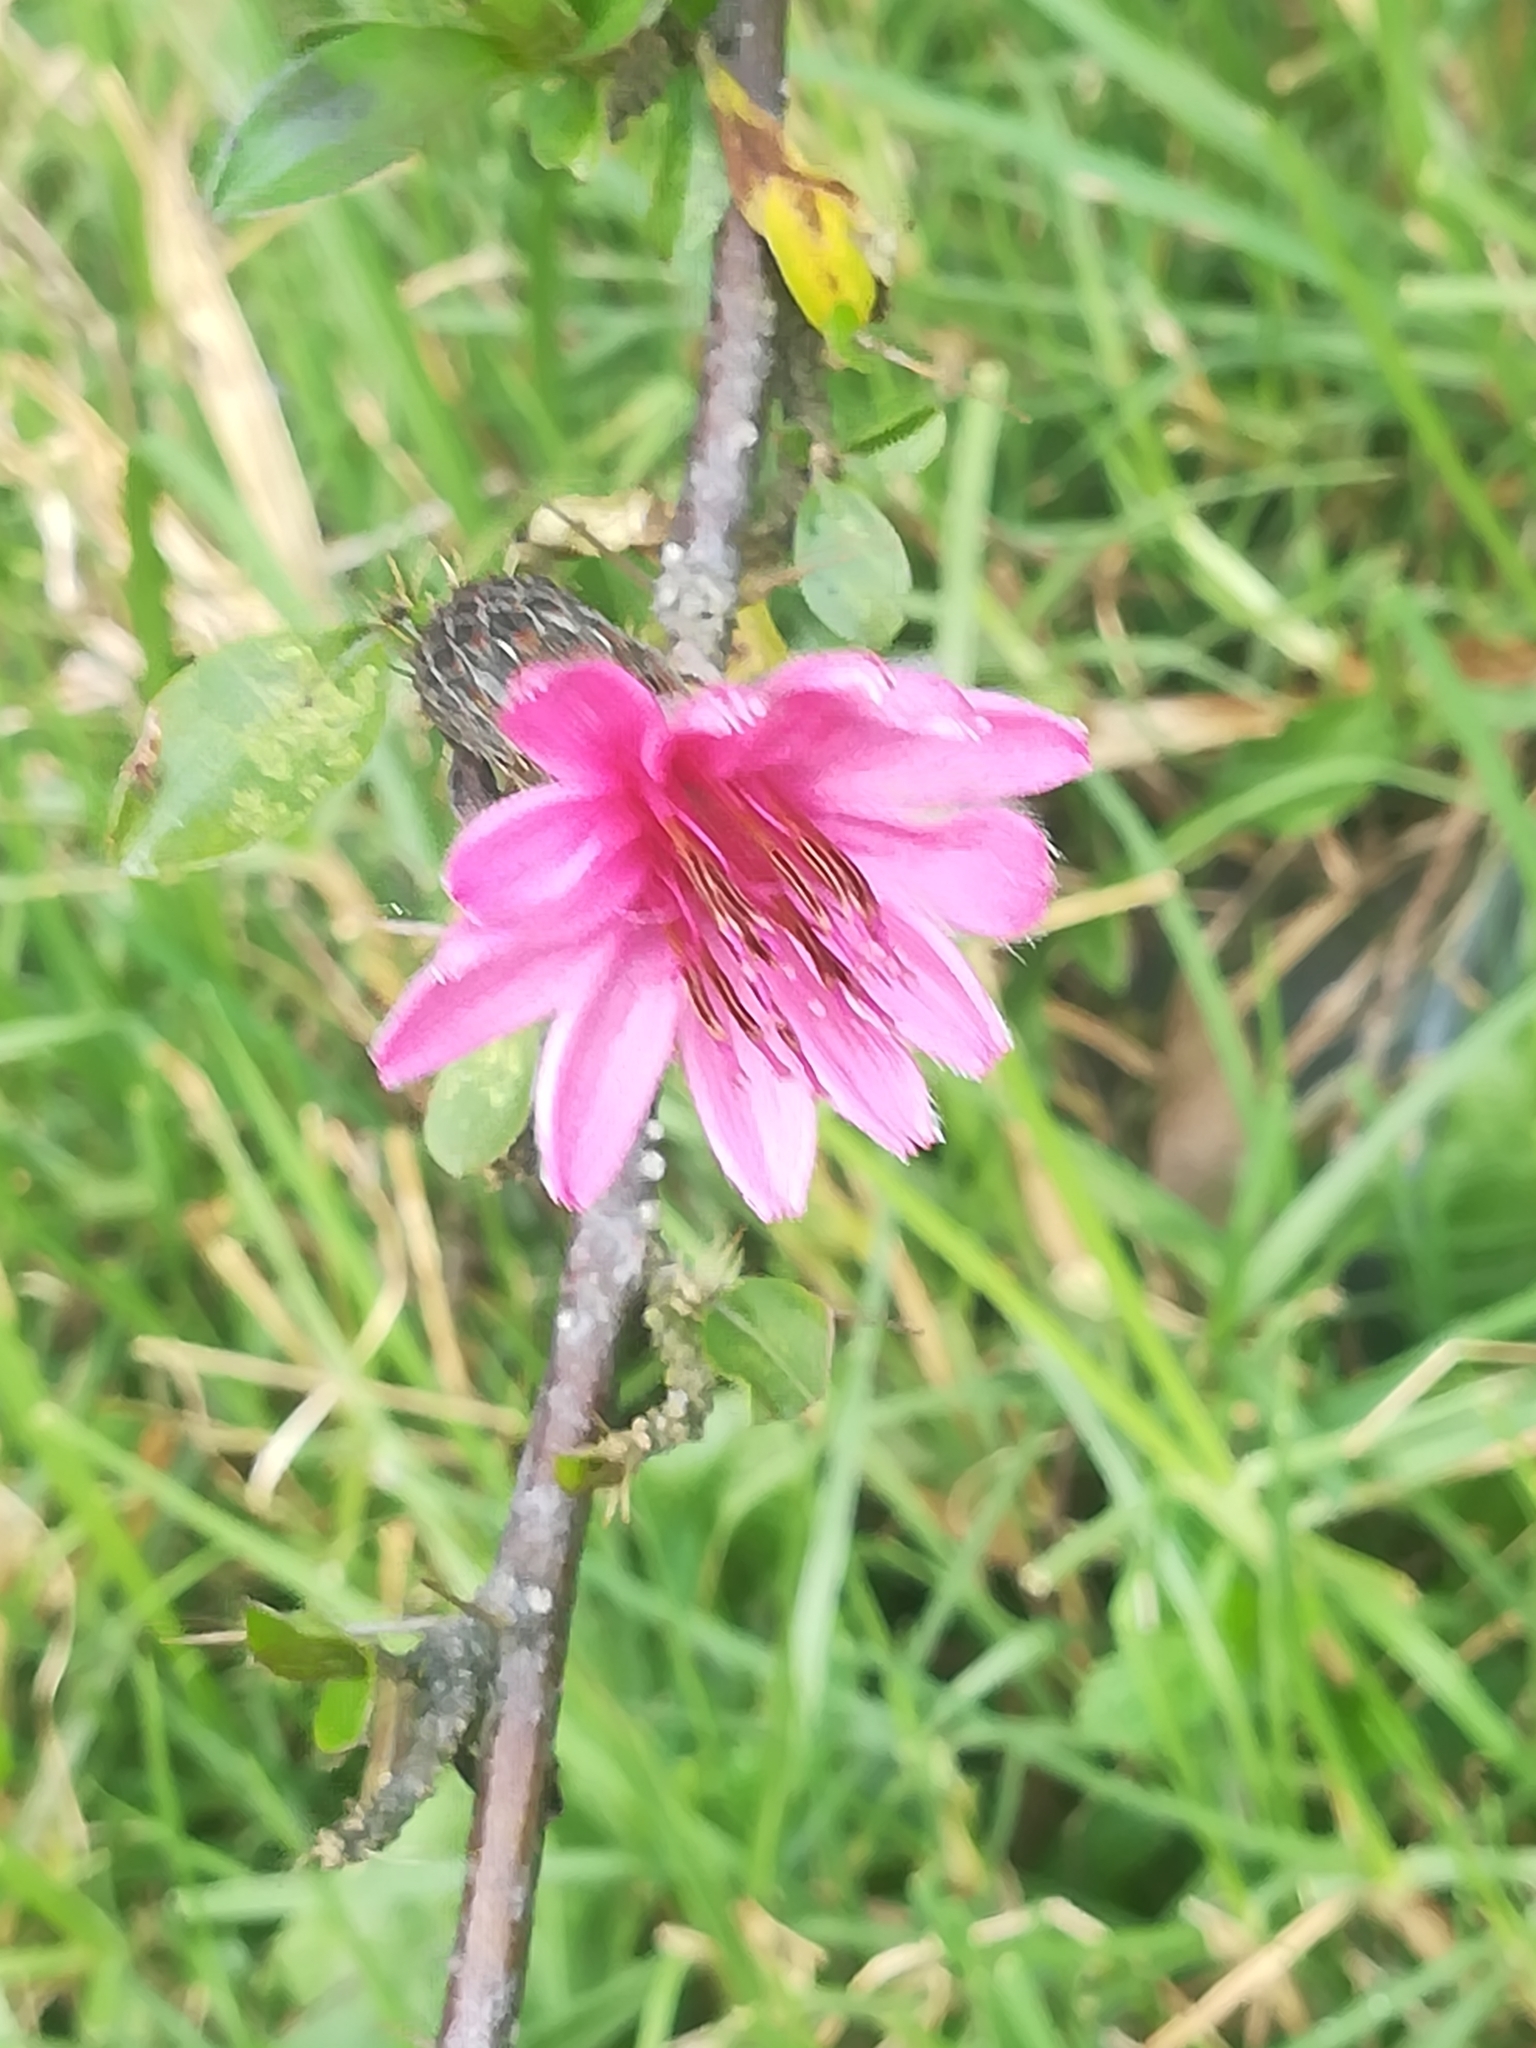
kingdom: Plantae
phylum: Tracheophyta
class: Magnoliopsida
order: Asterales
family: Asteraceae
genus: Barnadesia
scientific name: Barnadesia arborea
